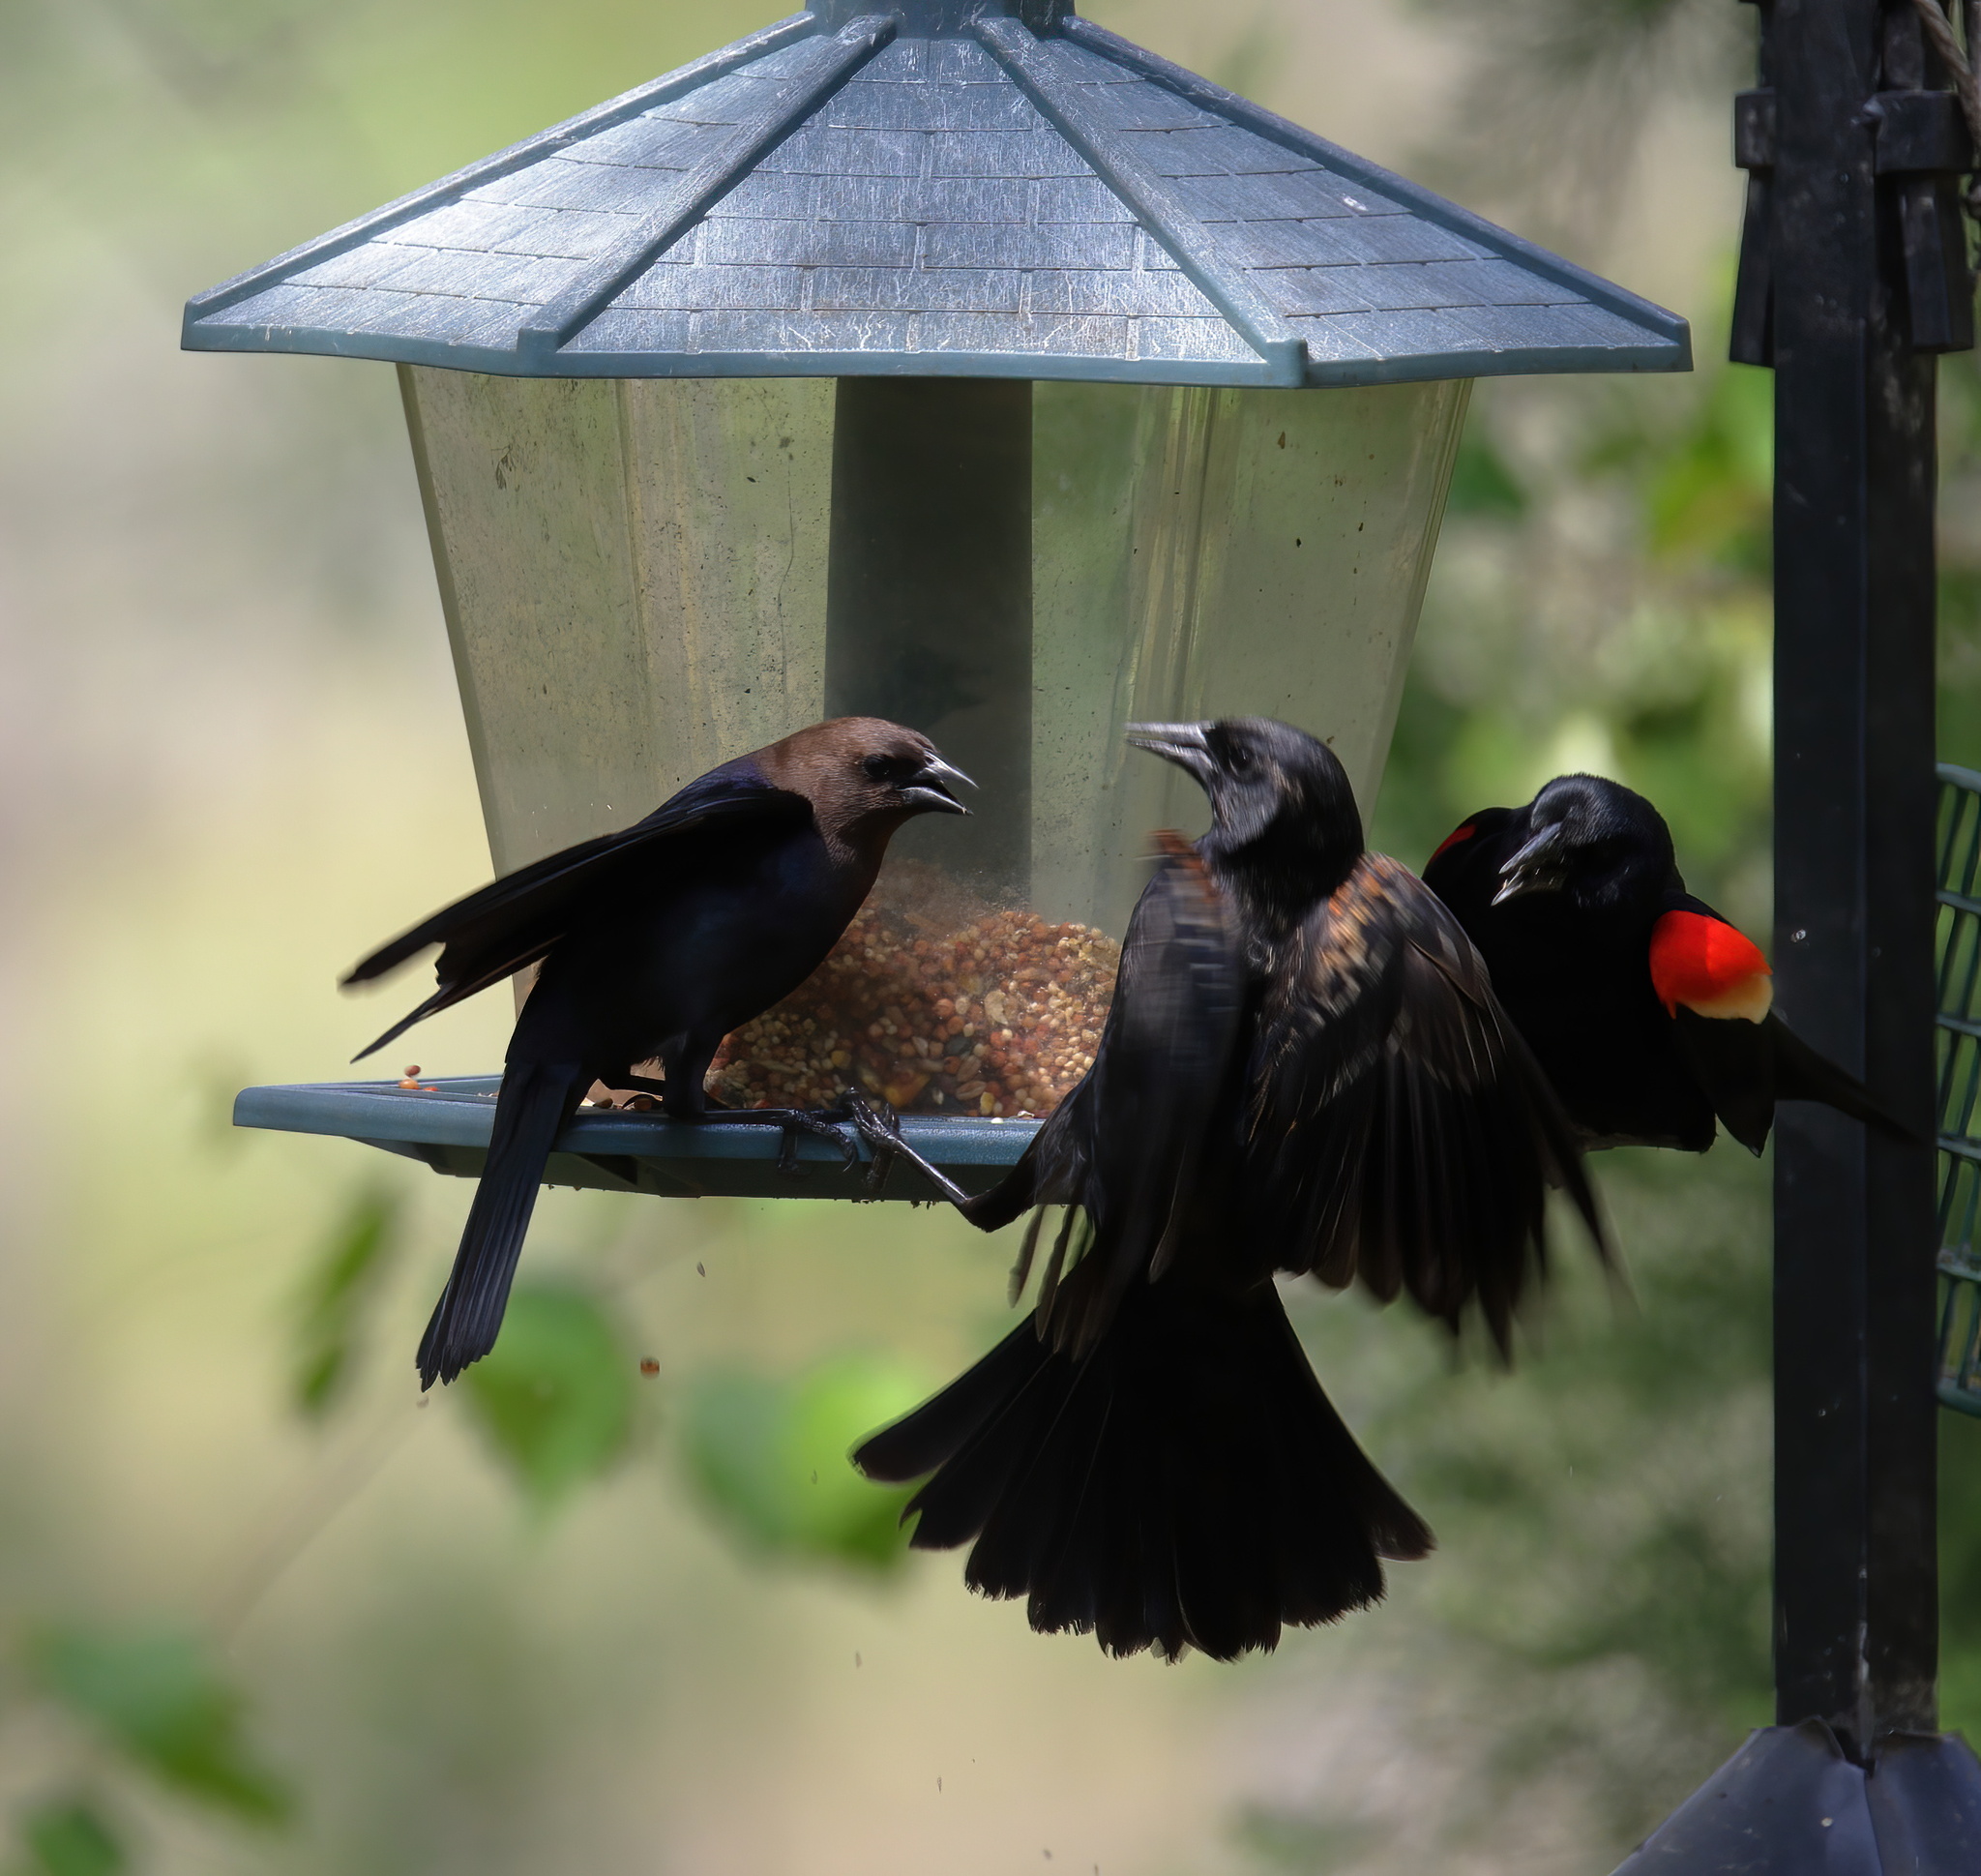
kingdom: Animalia
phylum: Chordata
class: Aves
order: Passeriformes
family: Icteridae
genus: Molothrus
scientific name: Molothrus ater
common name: Brown-headed cowbird
